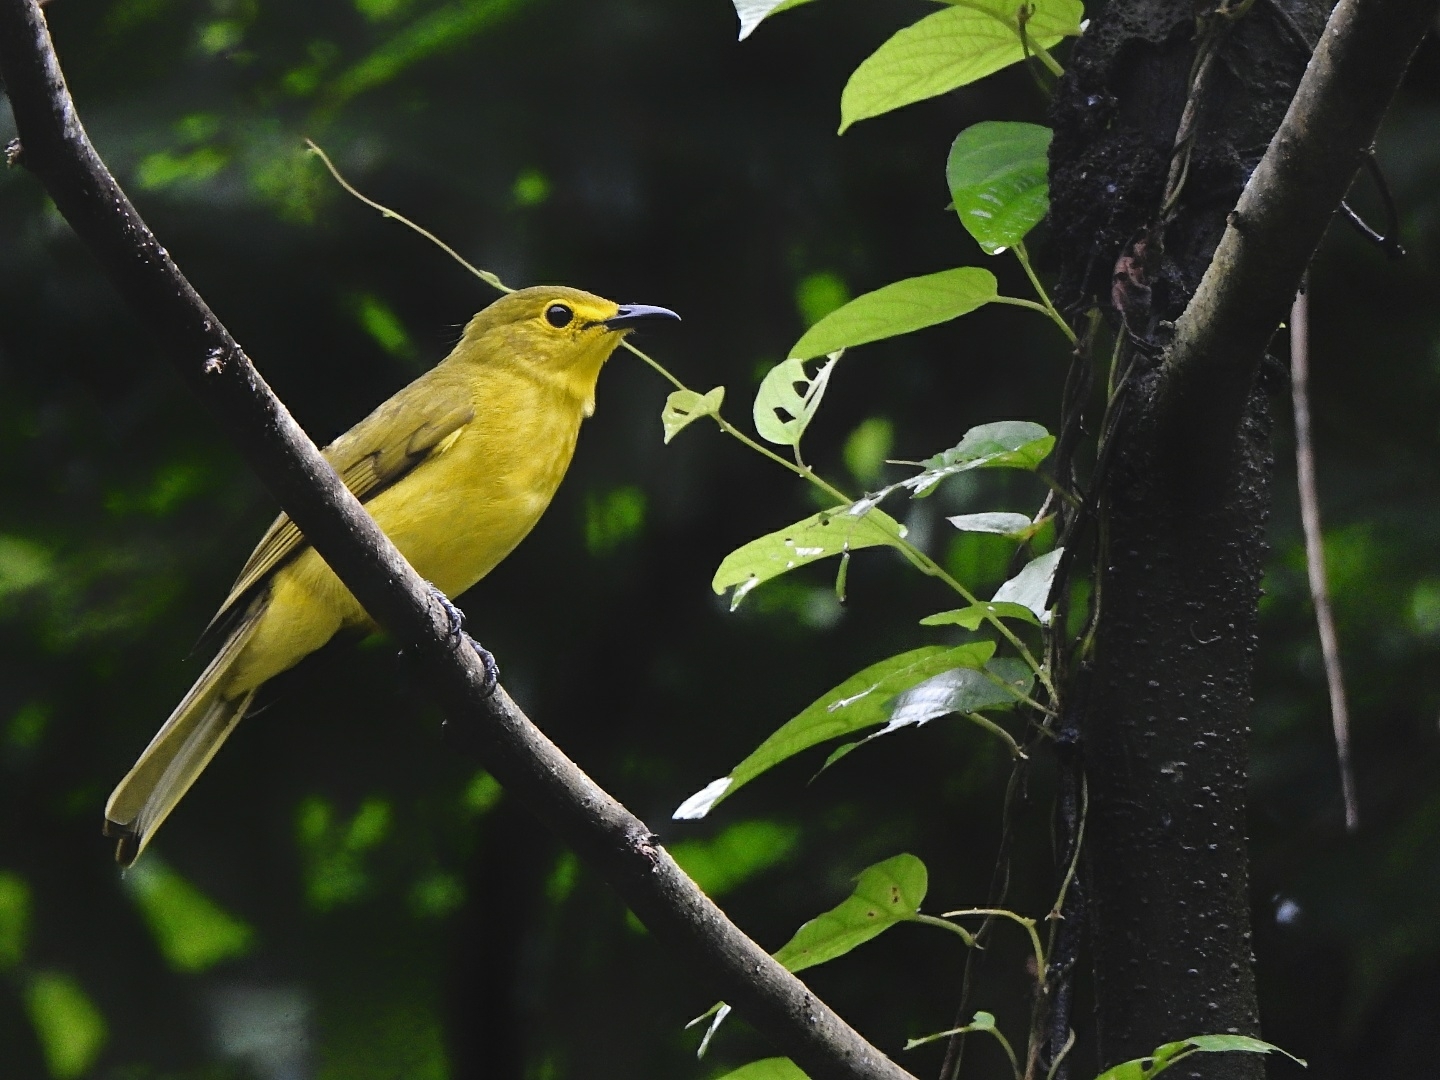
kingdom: Animalia
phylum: Chordata
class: Aves
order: Passeriformes
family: Pycnonotidae
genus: Acritillas
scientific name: Acritillas indica
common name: Yellow-browed bulbul
